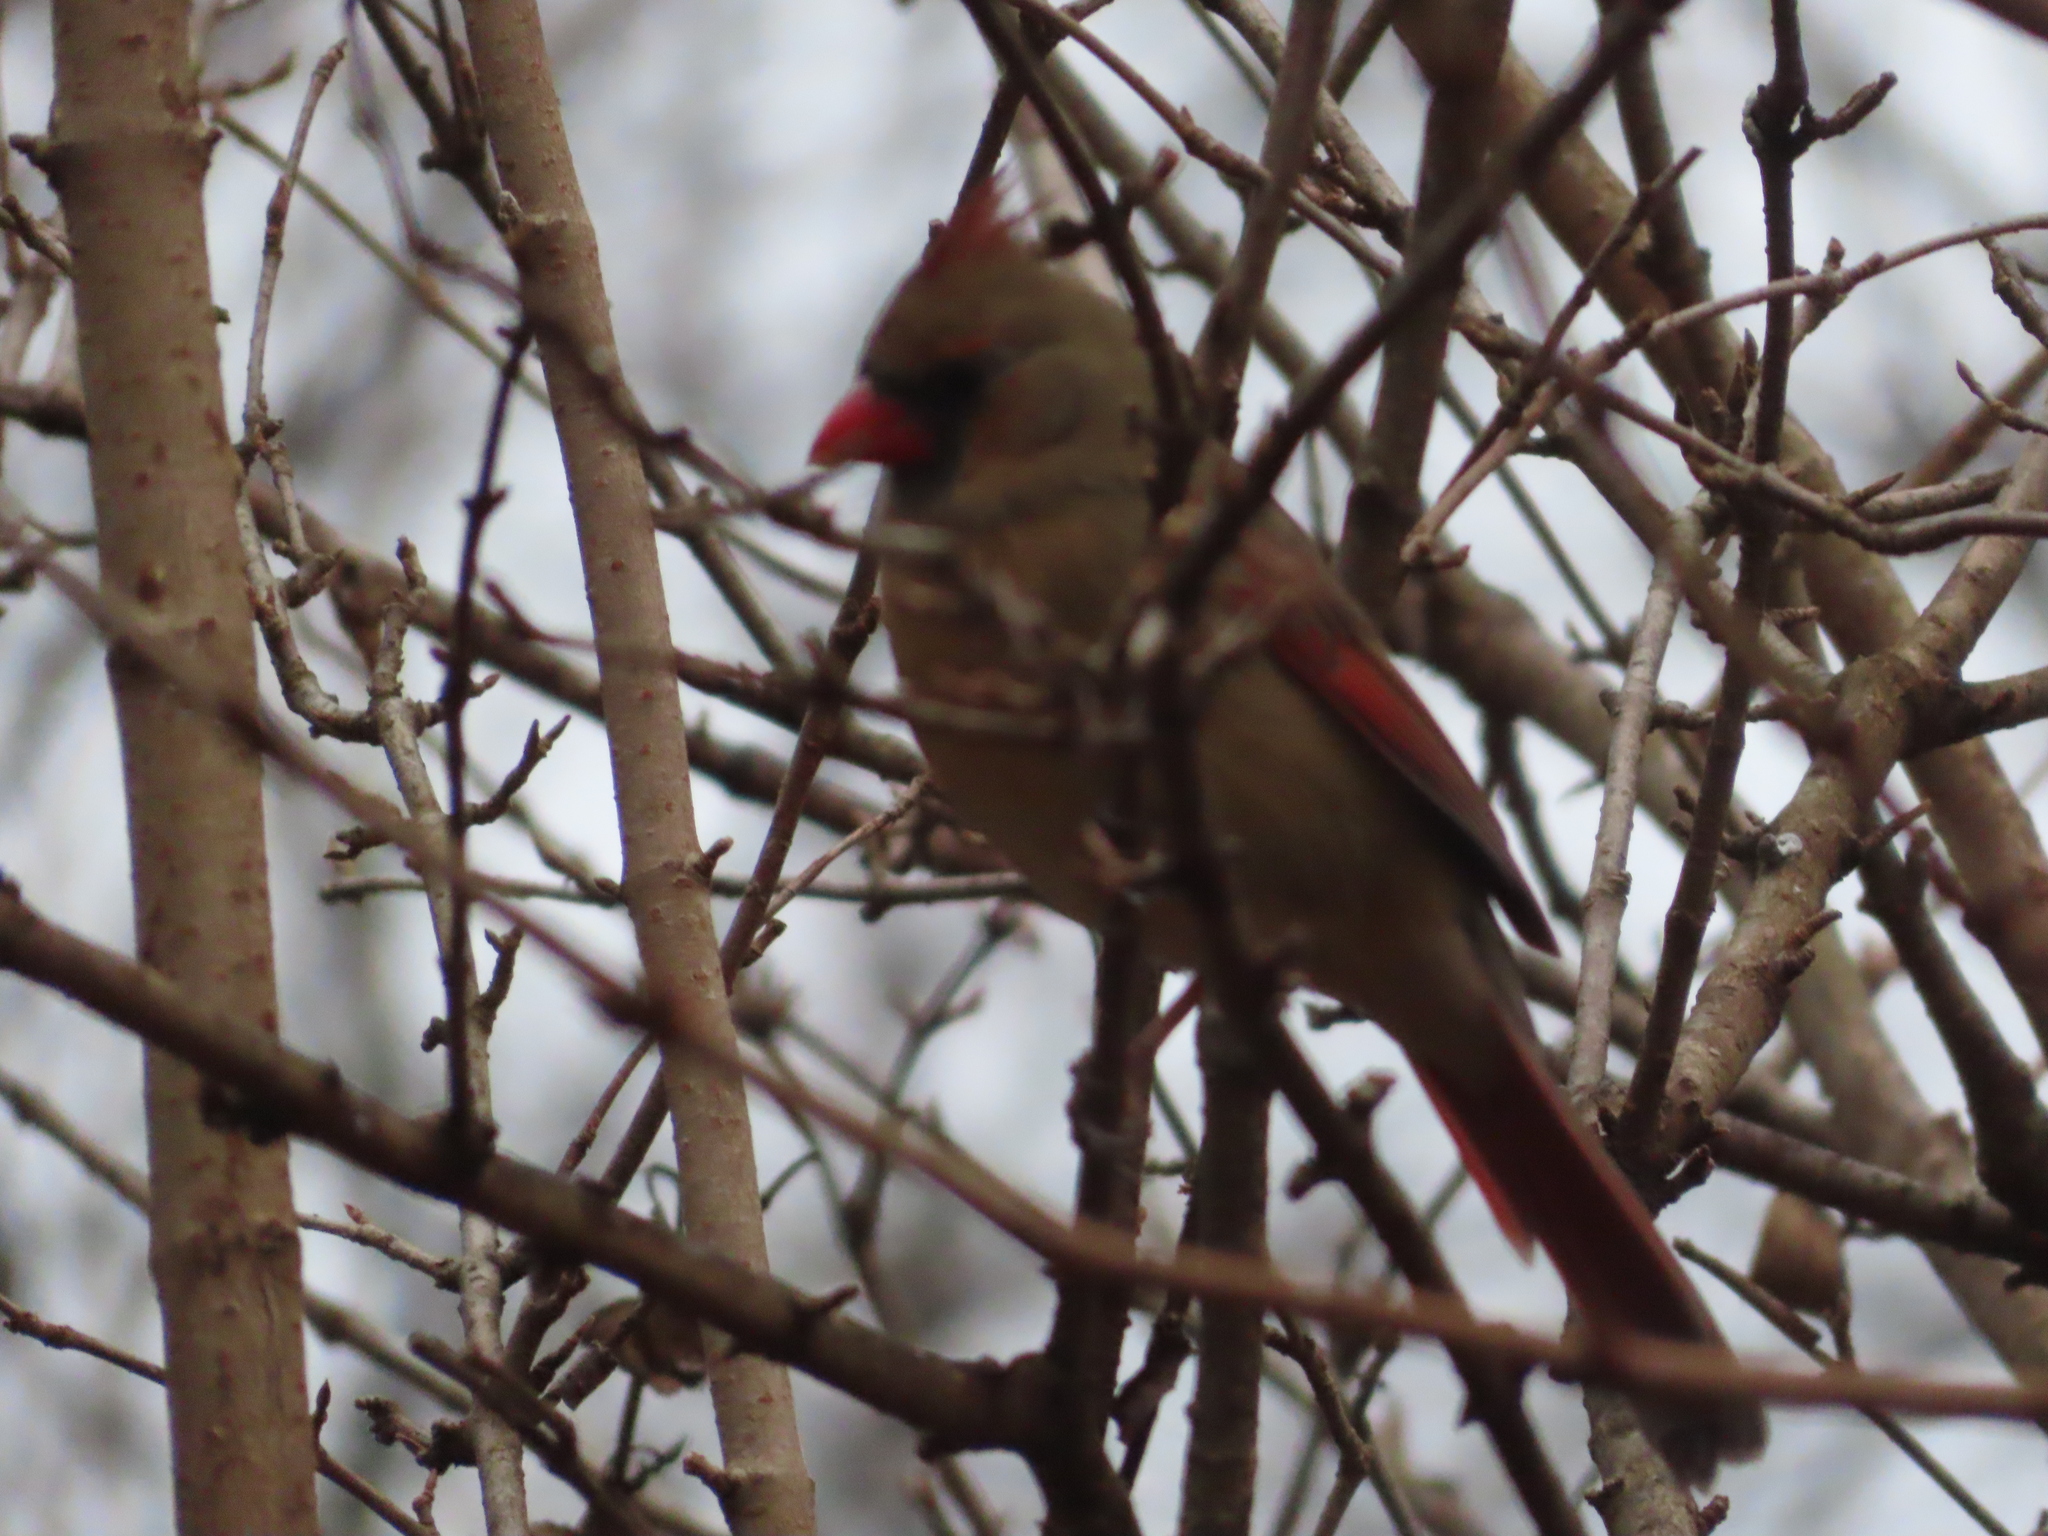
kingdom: Animalia
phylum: Chordata
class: Aves
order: Passeriformes
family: Cardinalidae
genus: Cardinalis
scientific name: Cardinalis cardinalis
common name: Northern cardinal
